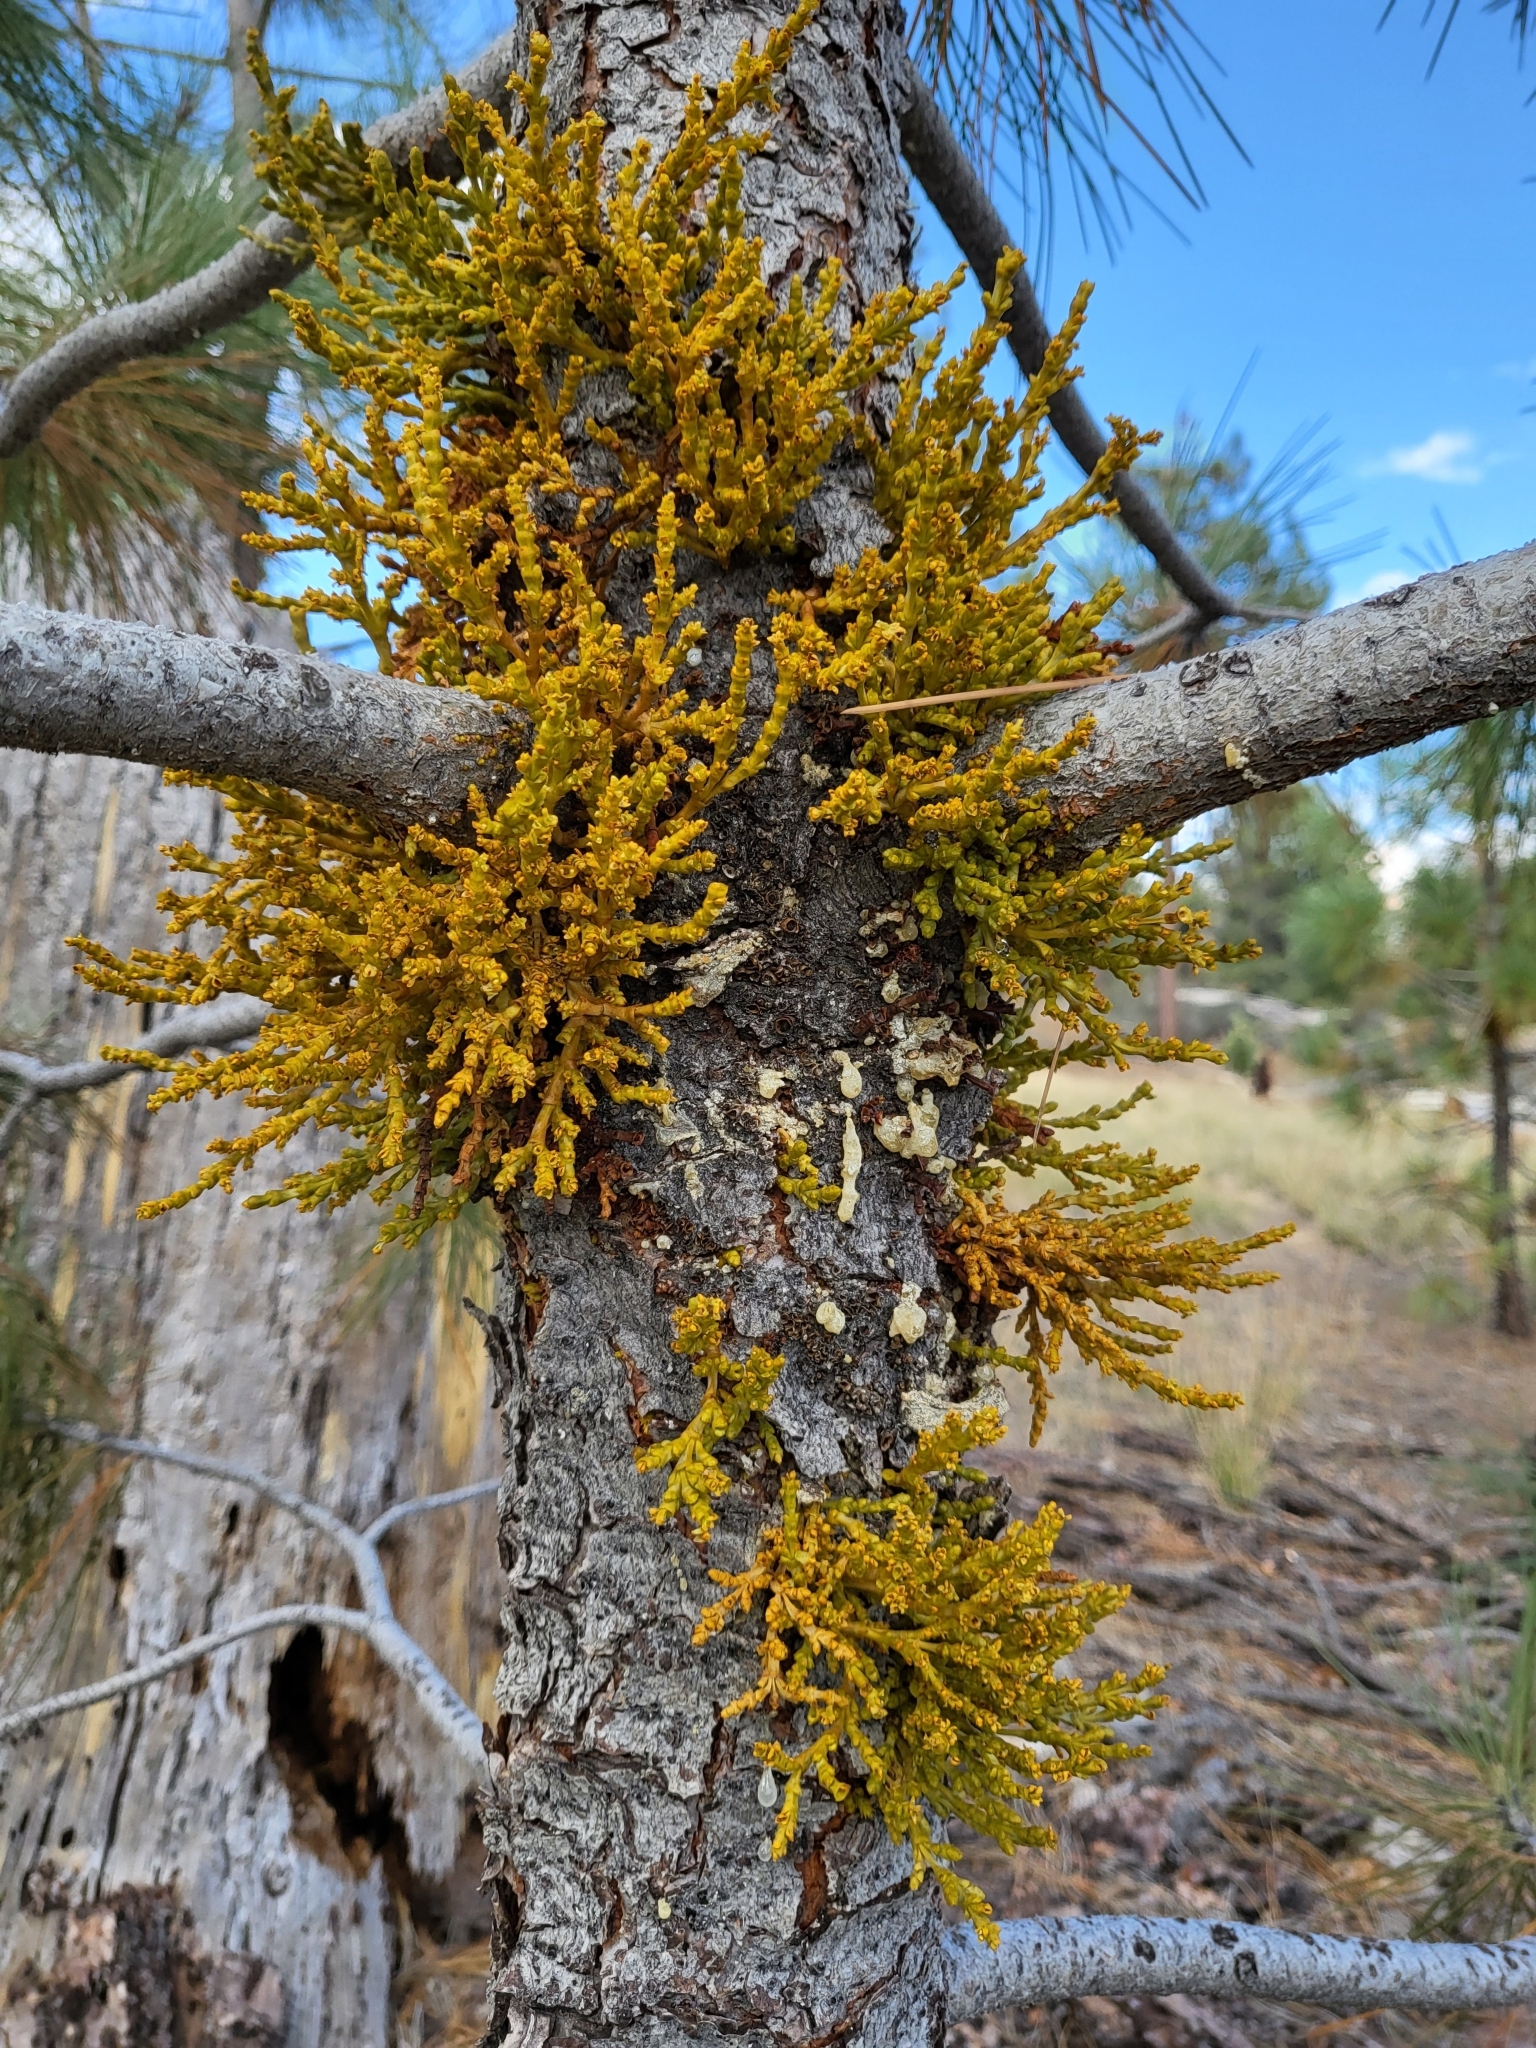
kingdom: Plantae
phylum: Tracheophyta
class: Magnoliopsida
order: Santalales
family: Viscaceae
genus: Arceuthobium
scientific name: Arceuthobium campylopodum
